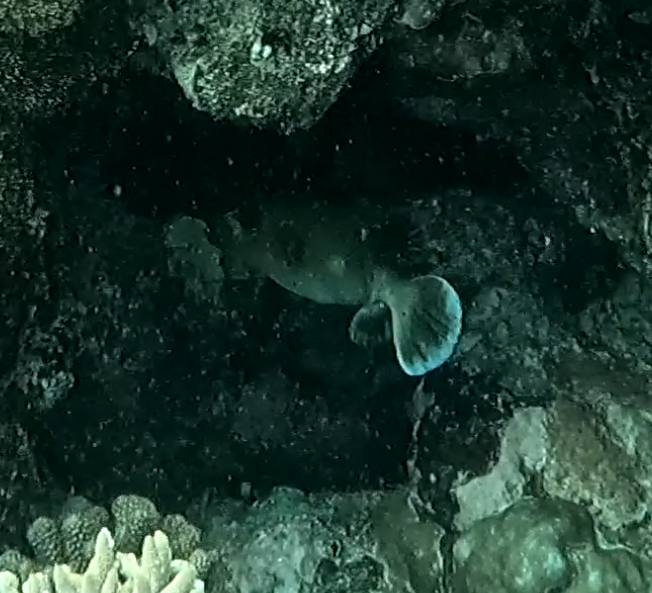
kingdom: Animalia
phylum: Chordata
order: Tetraodontiformes
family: Tetraodontidae
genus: Arothron
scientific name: Arothron nigropunctatus
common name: Black spotted blow fish
